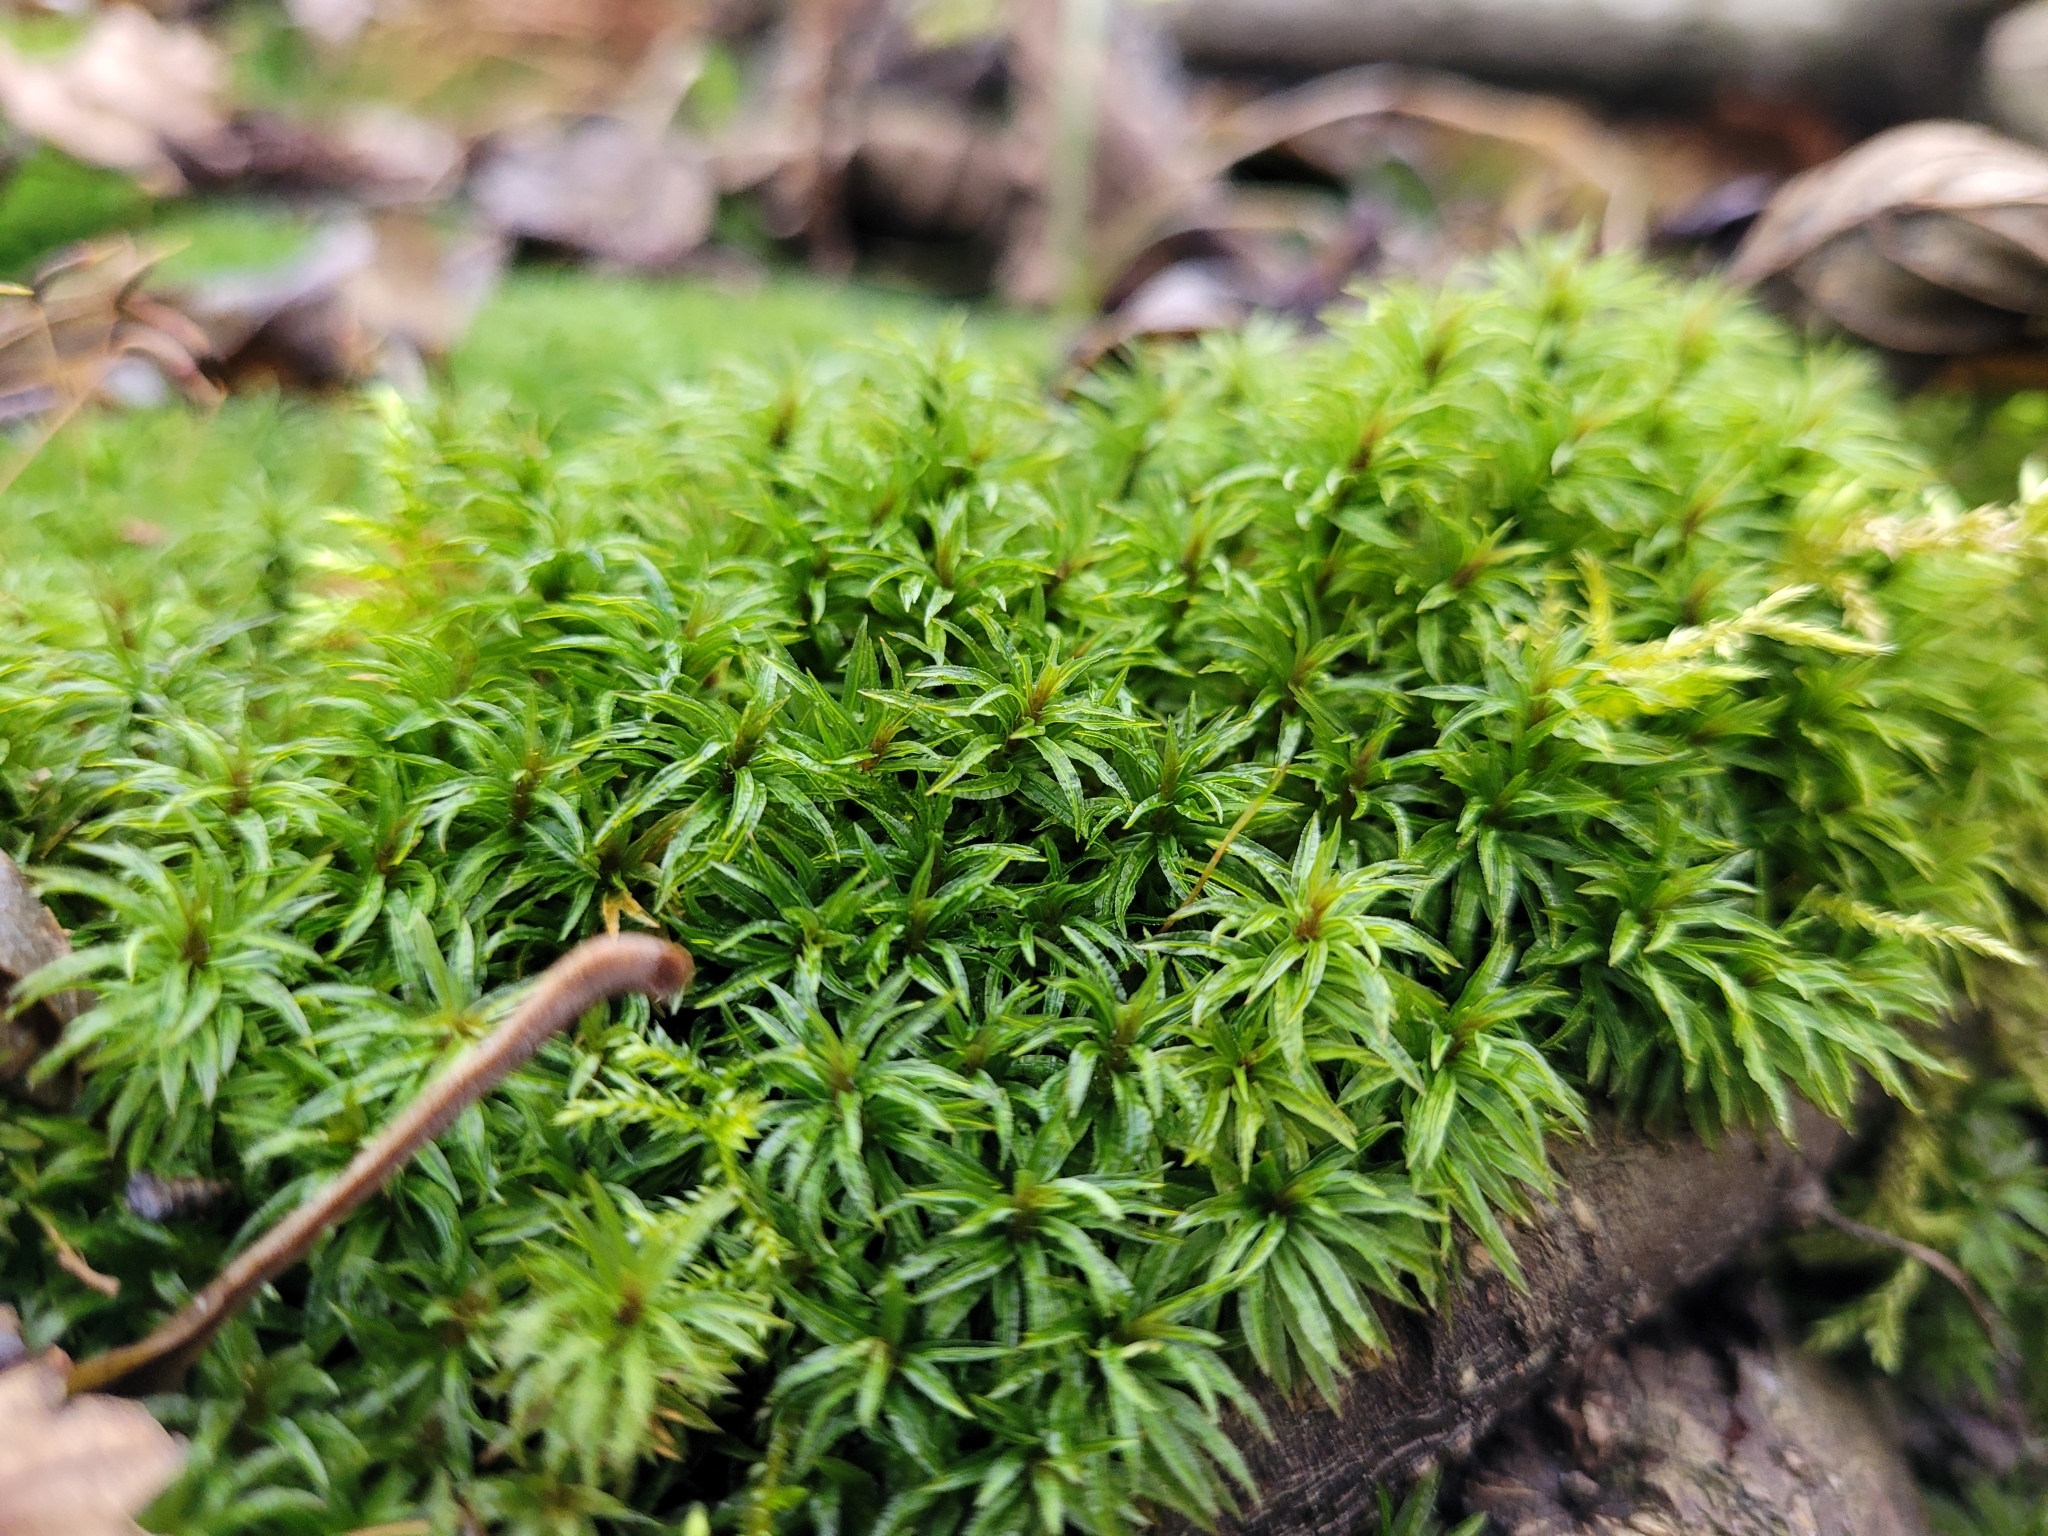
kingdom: Plantae
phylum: Bryophyta
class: Polytrichopsida
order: Polytrichales
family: Polytrichaceae
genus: Atrichum
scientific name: Atrichum undulatum
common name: Common smoothcap
